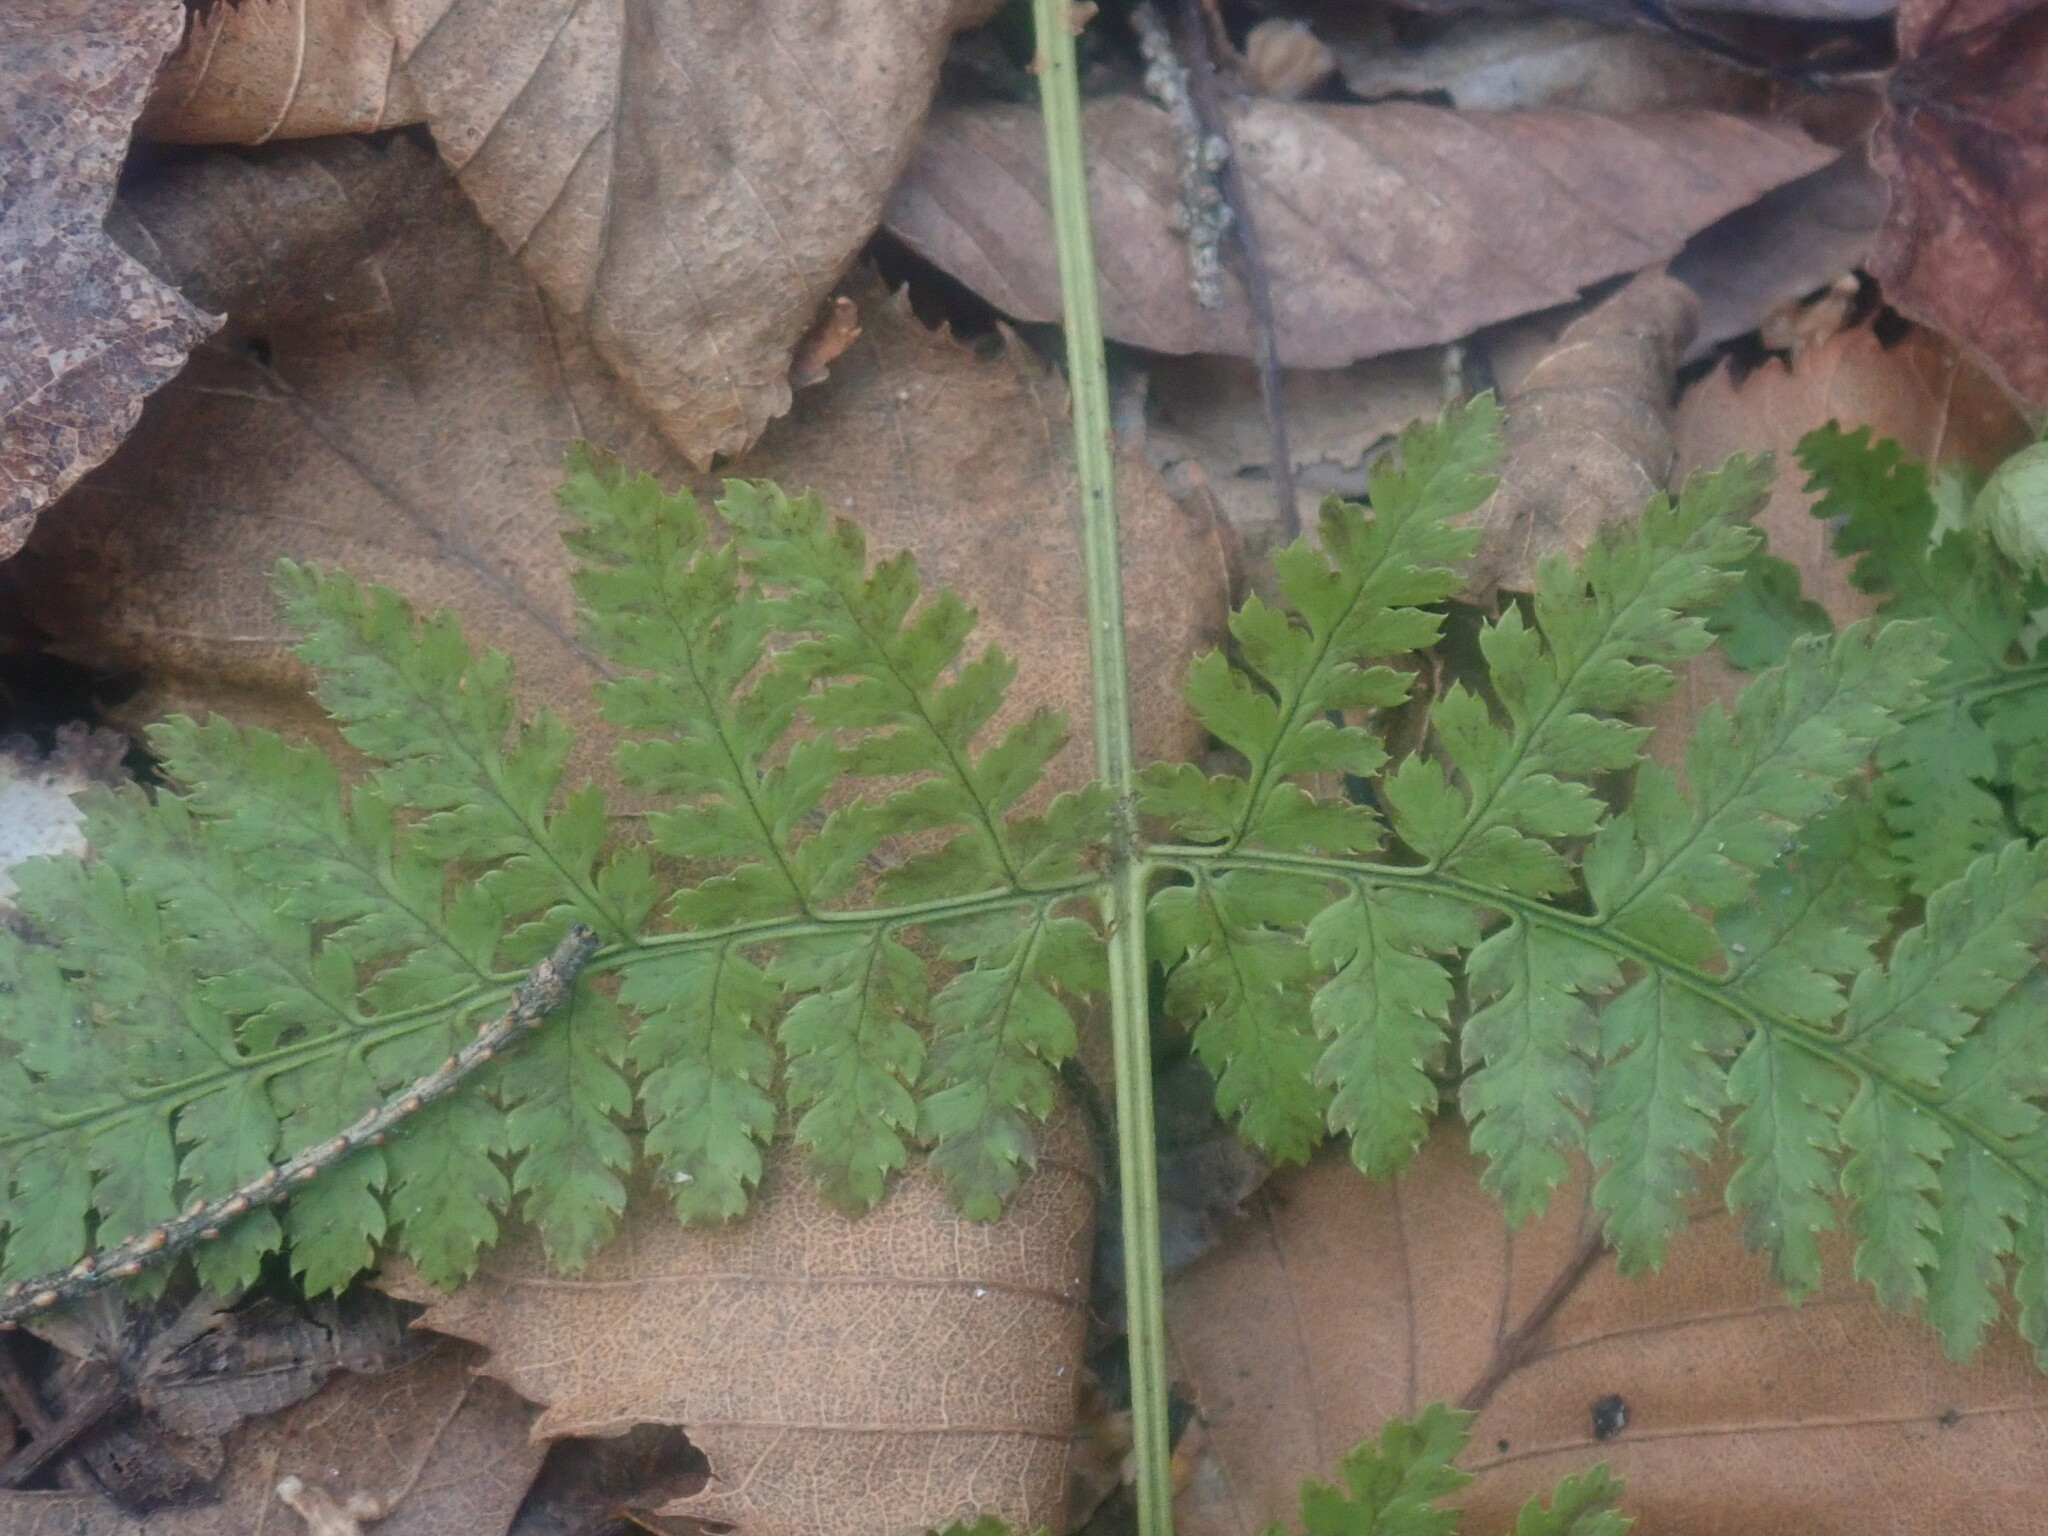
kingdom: Plantae
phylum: Tracheophyta
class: Polypodiopsida
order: Polypodiales
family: Dryopteridaceae
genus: Dryopteris
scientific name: Dryopteris intermedia
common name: Evergreen wood fern
